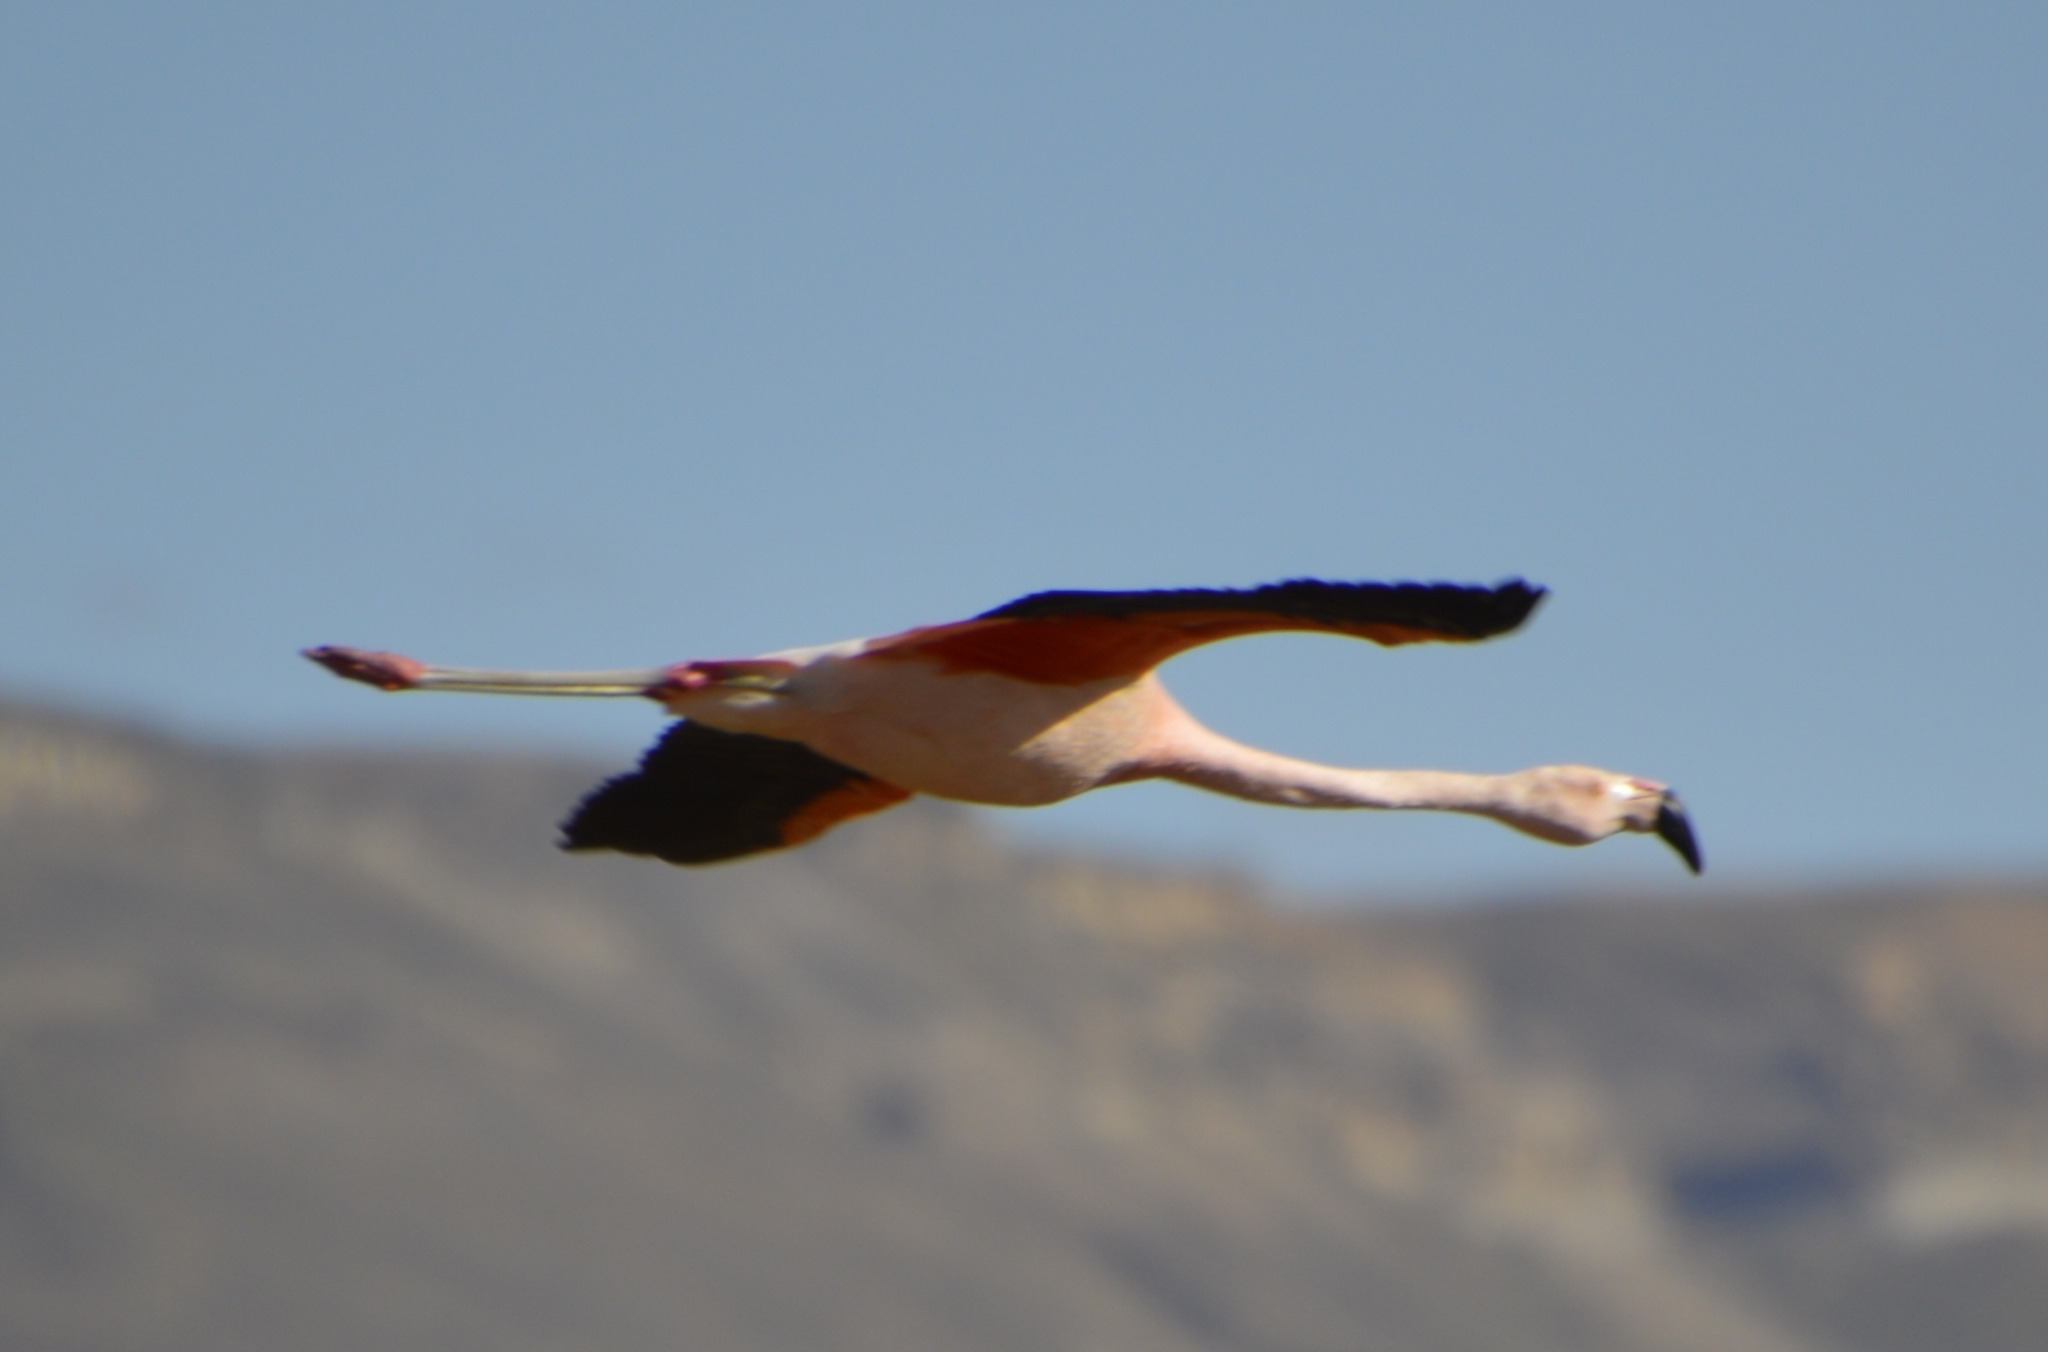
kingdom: Animalia
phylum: Chordata
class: Aves
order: Phoenicopteriformes
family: Phoenicopteridae
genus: Phoenicopterus
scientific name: Phoenicopterus chilensis
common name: Chilean flamingo
